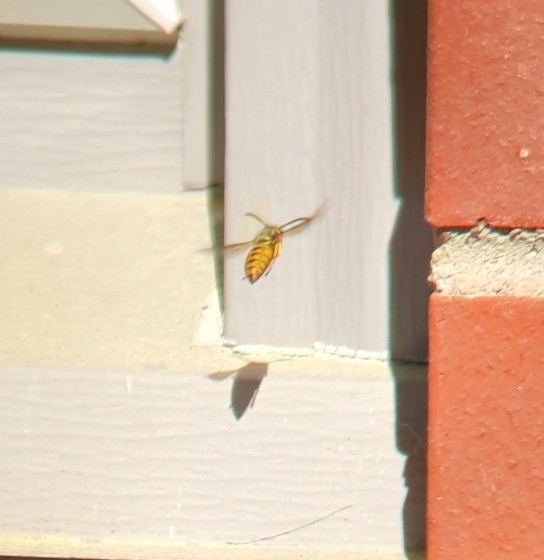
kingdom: Animalia
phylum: Arthropoda
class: Insecta
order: Hymenoptera
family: Vespidae
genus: Vespula
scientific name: Vespula maculifrons
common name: Eastern yellowjacket
